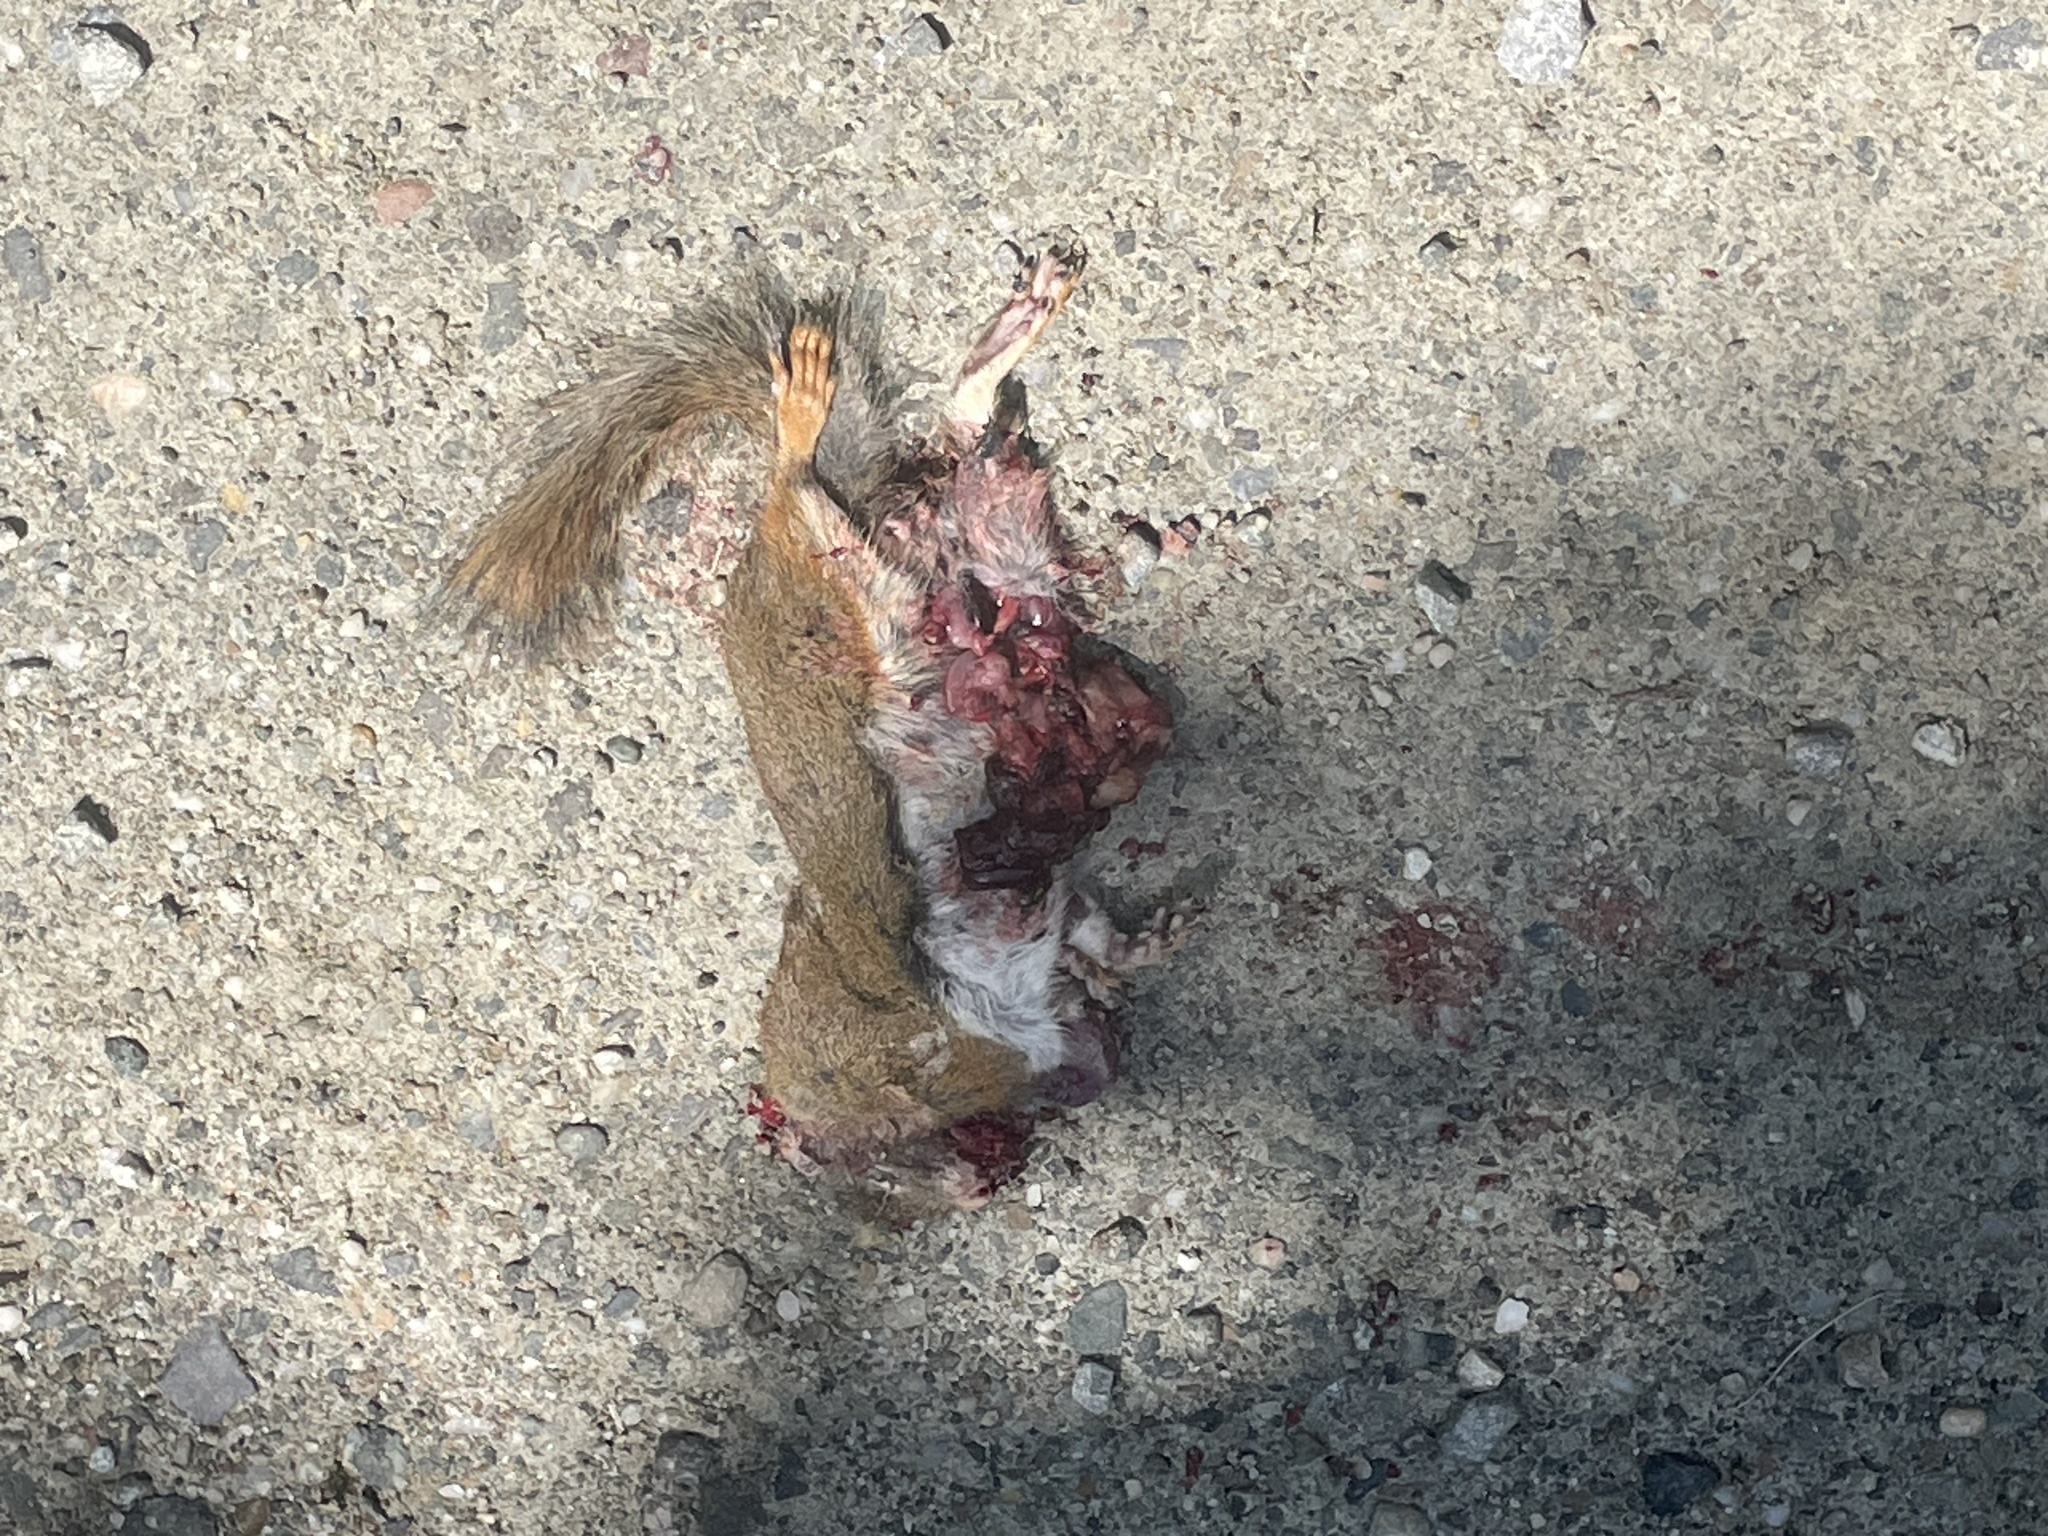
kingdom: Animalia
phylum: Chordata
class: Mammalia
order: Rodentia
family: Sciuridae
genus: Tamiasciurus
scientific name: Tamiasciurus hudsonicus
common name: Red squirrel
